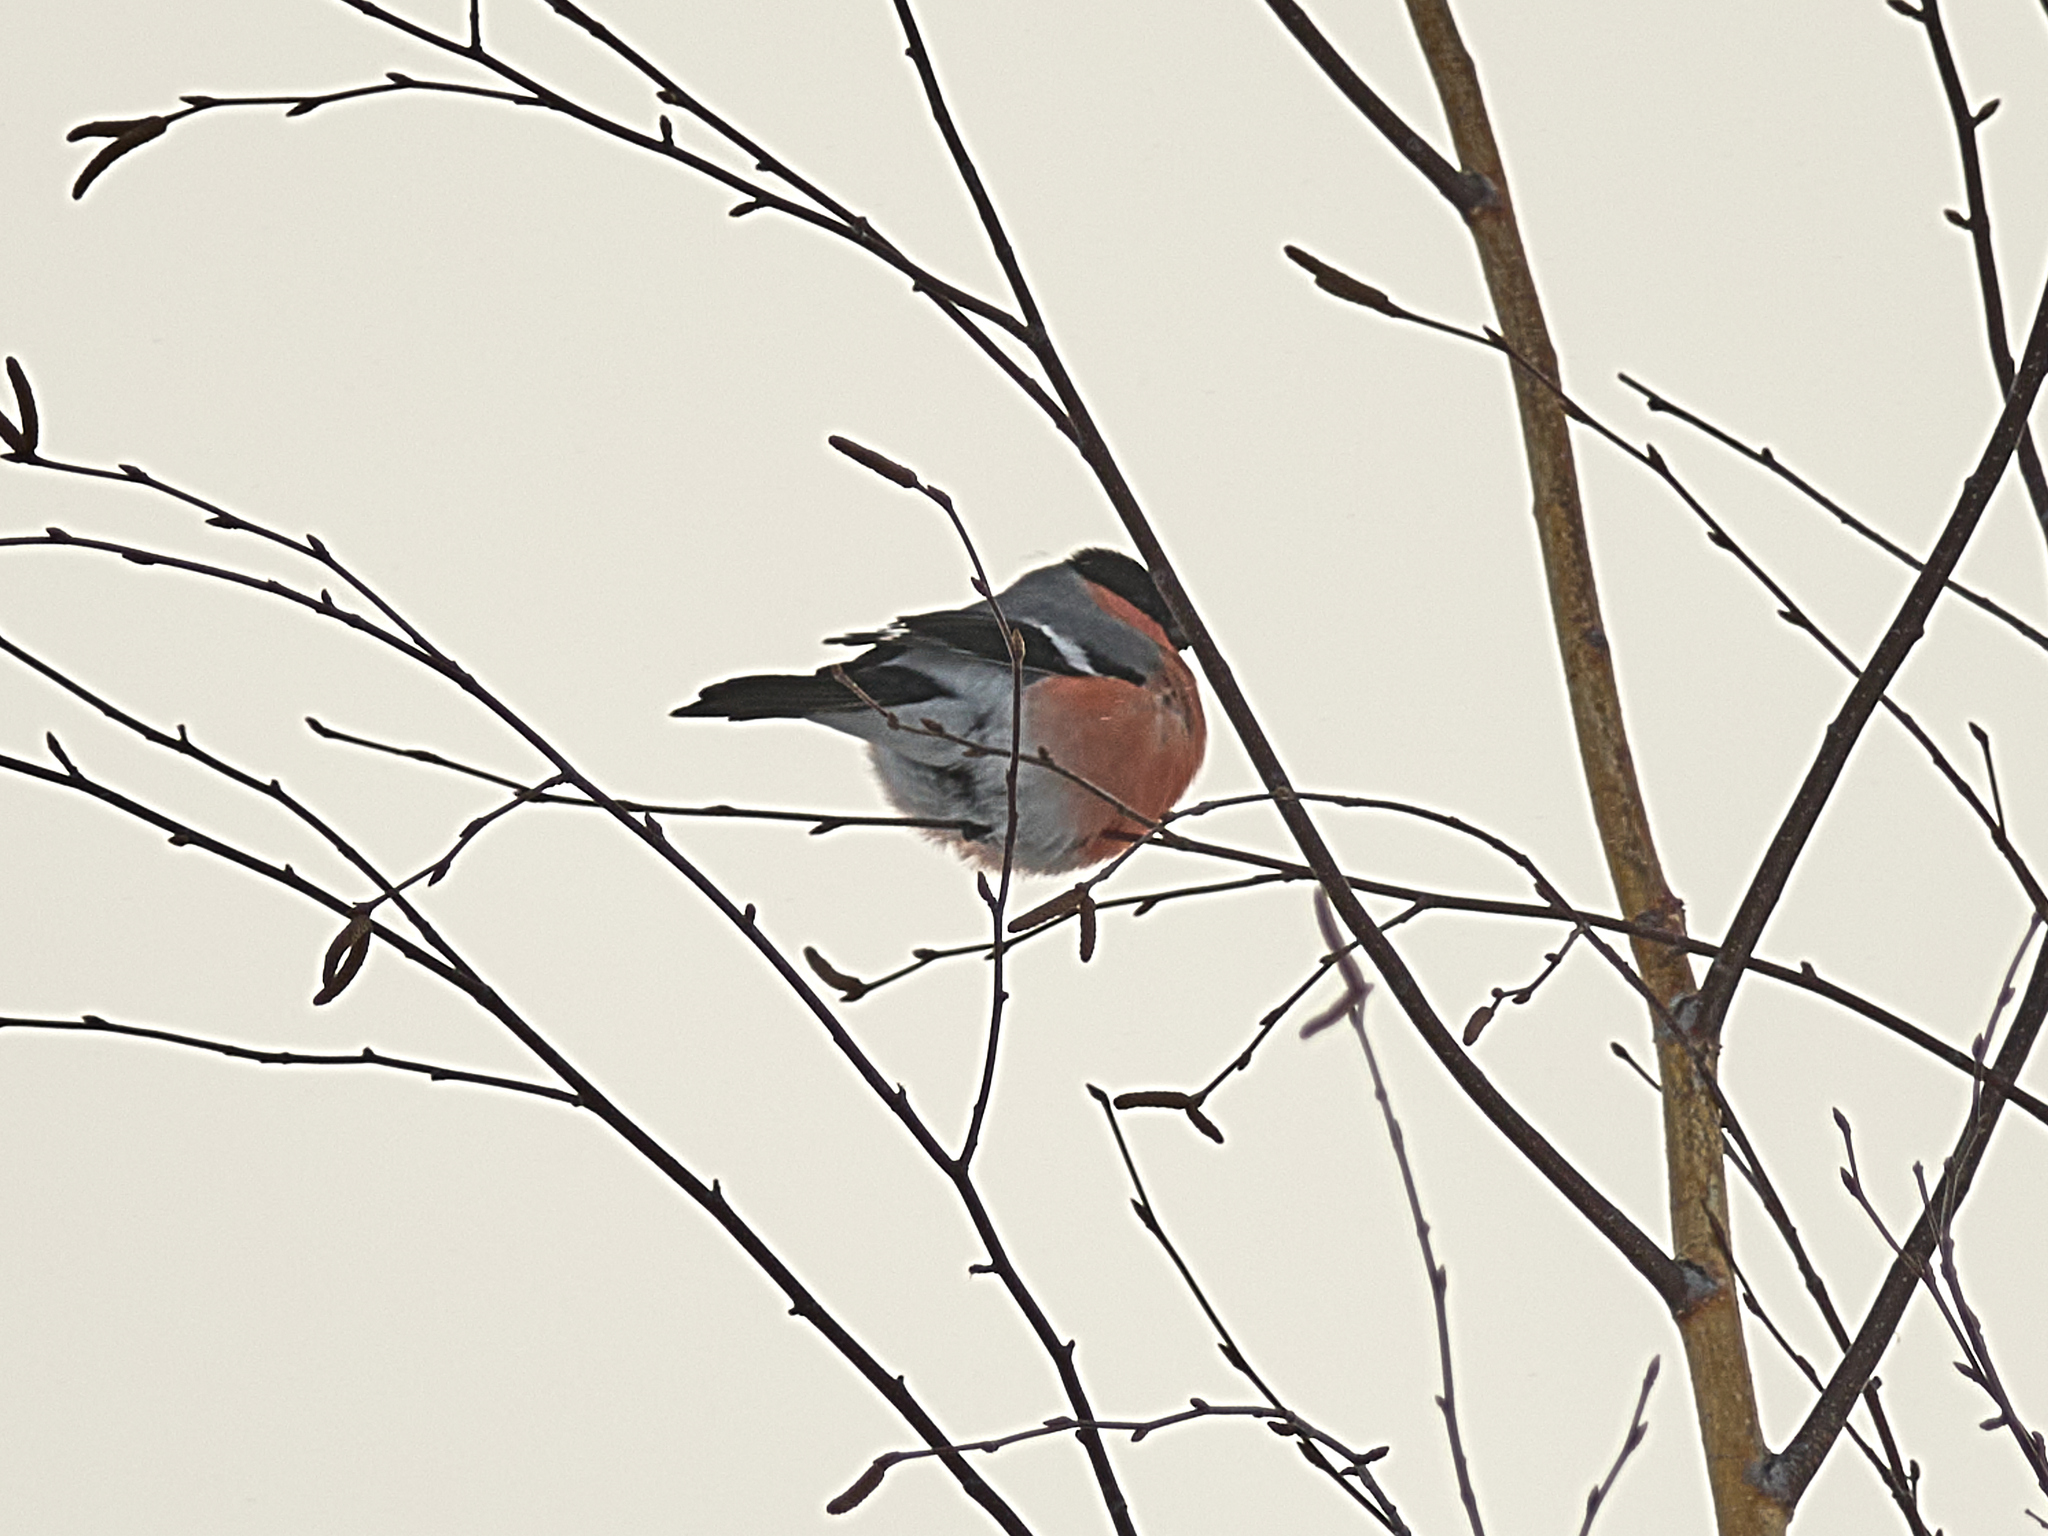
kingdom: Animalia
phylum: Chordata
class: Aves
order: Passeriformes
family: Fringillidae
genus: Pyrrhula
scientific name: Pyrrhula pyrrhula
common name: Eurasian bullfinch
